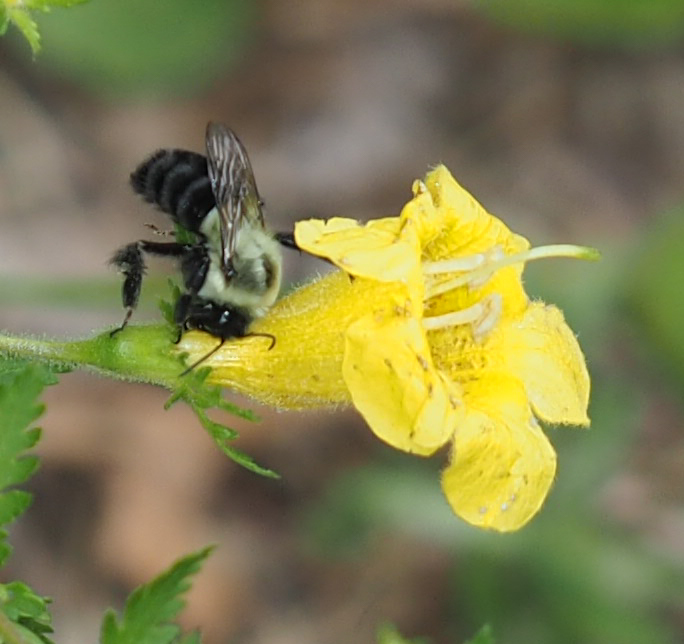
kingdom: Animalia
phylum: Arthropoda
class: Insecta
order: Hymenoptera
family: Apidae
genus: Bombus
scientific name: Bombus impatiens
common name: Common eastern bumble bee
